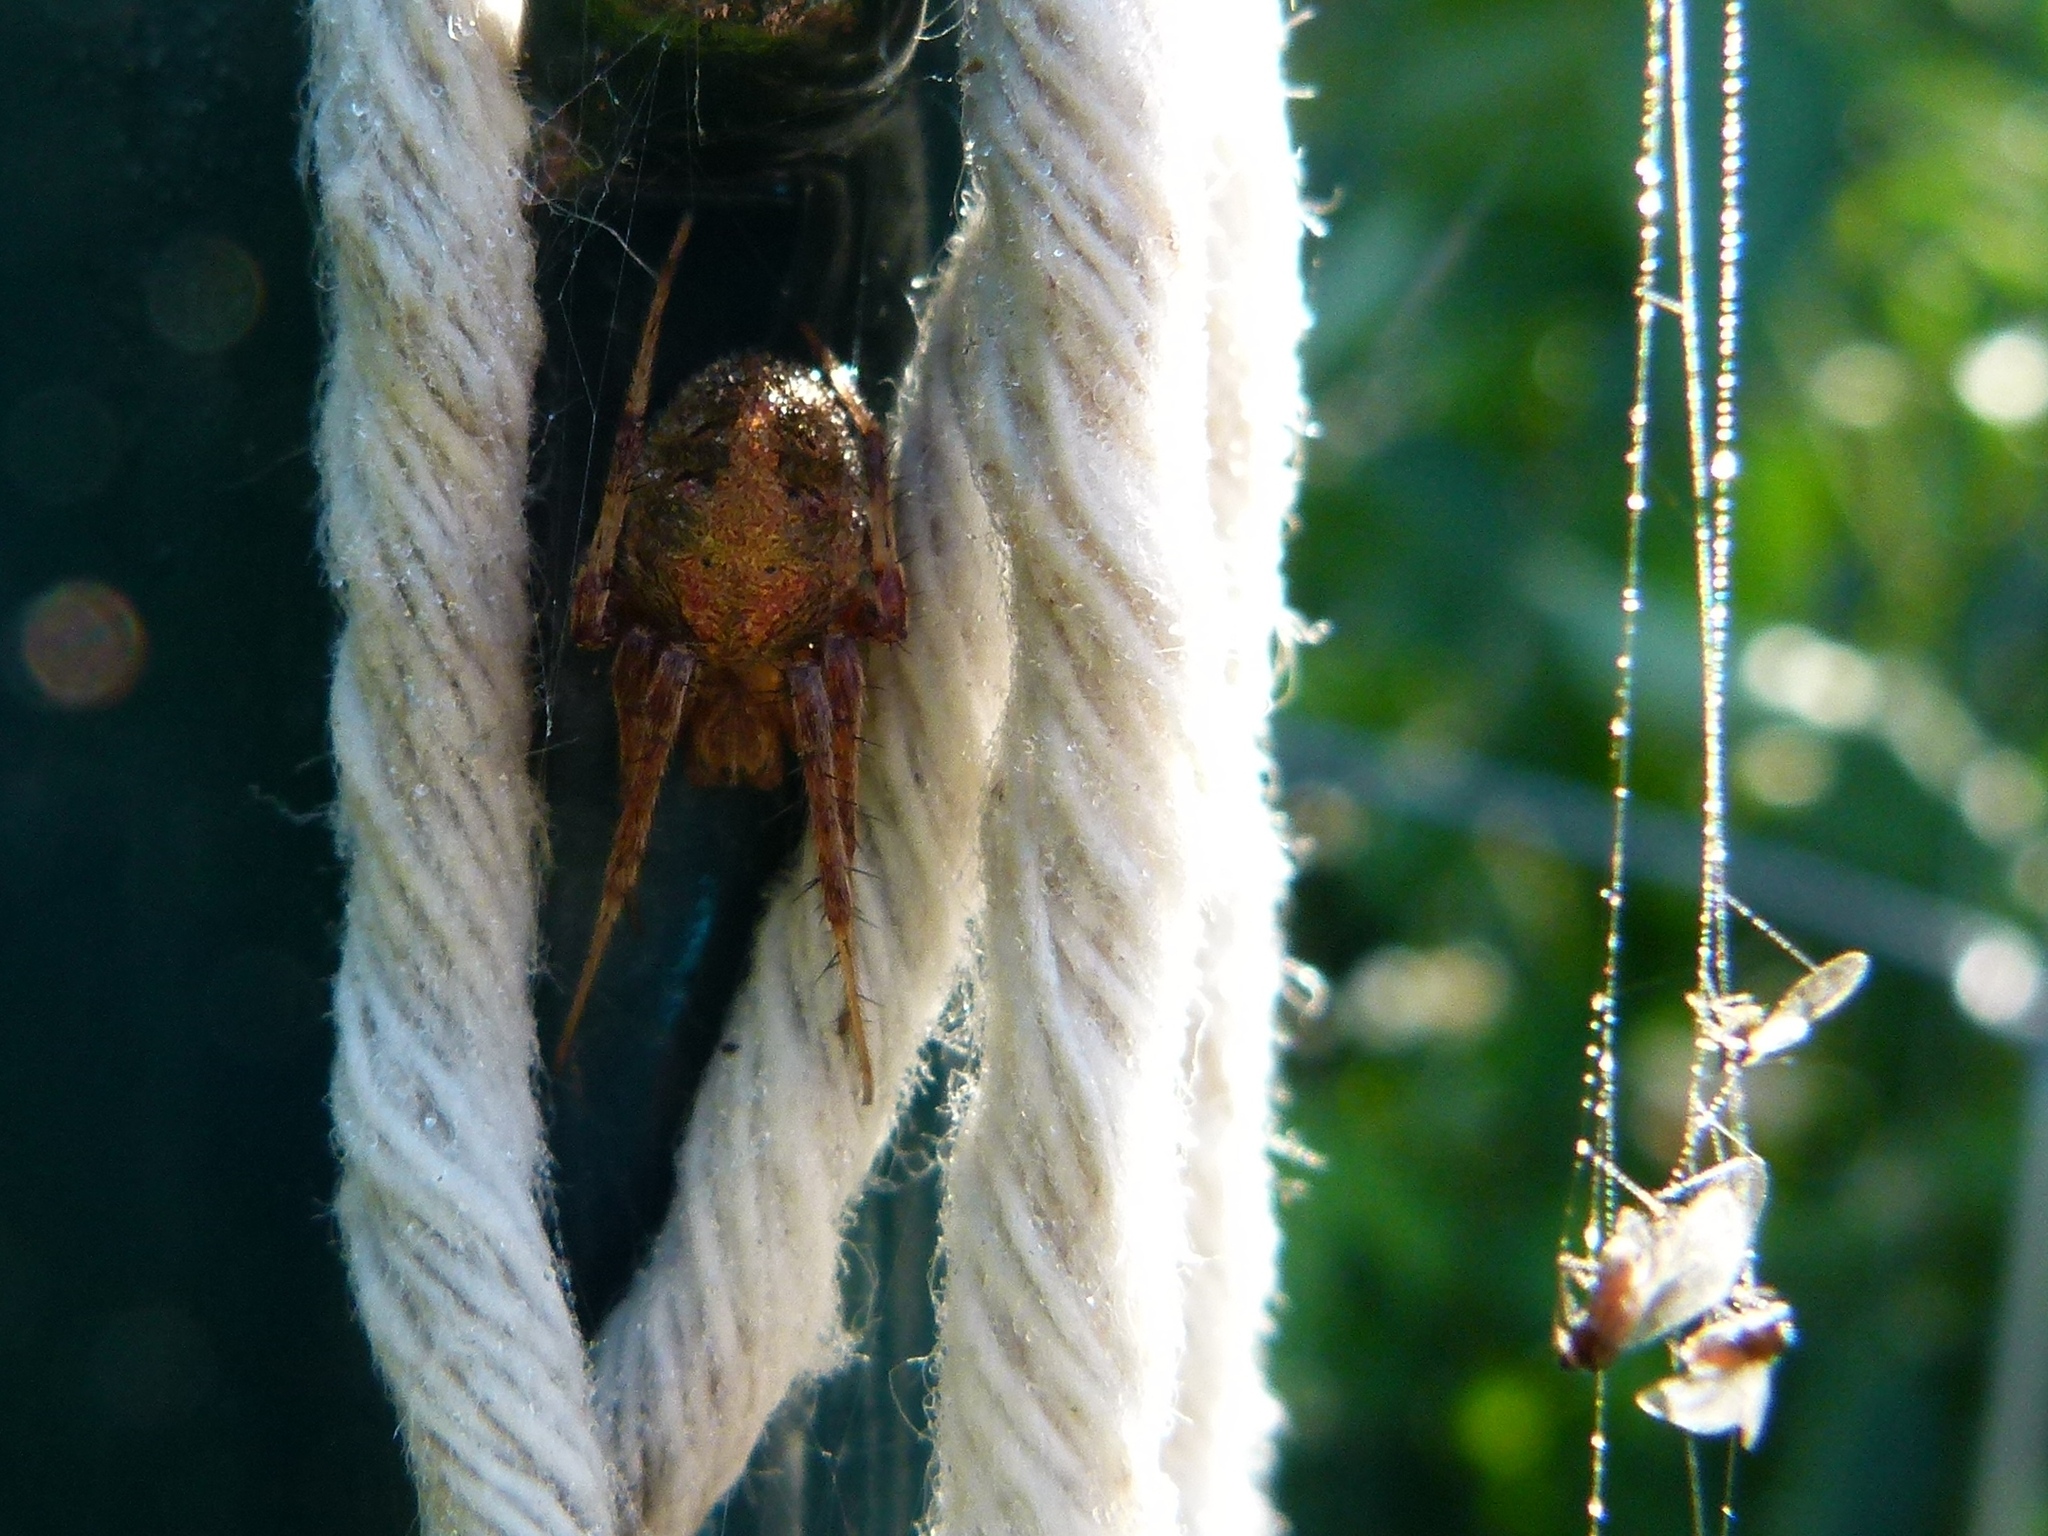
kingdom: Animalia
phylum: Arthropoda
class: Arachnida
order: Araneae
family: Araneidae
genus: Neoscona
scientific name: Neoscona arabesca
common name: Orb weavers
